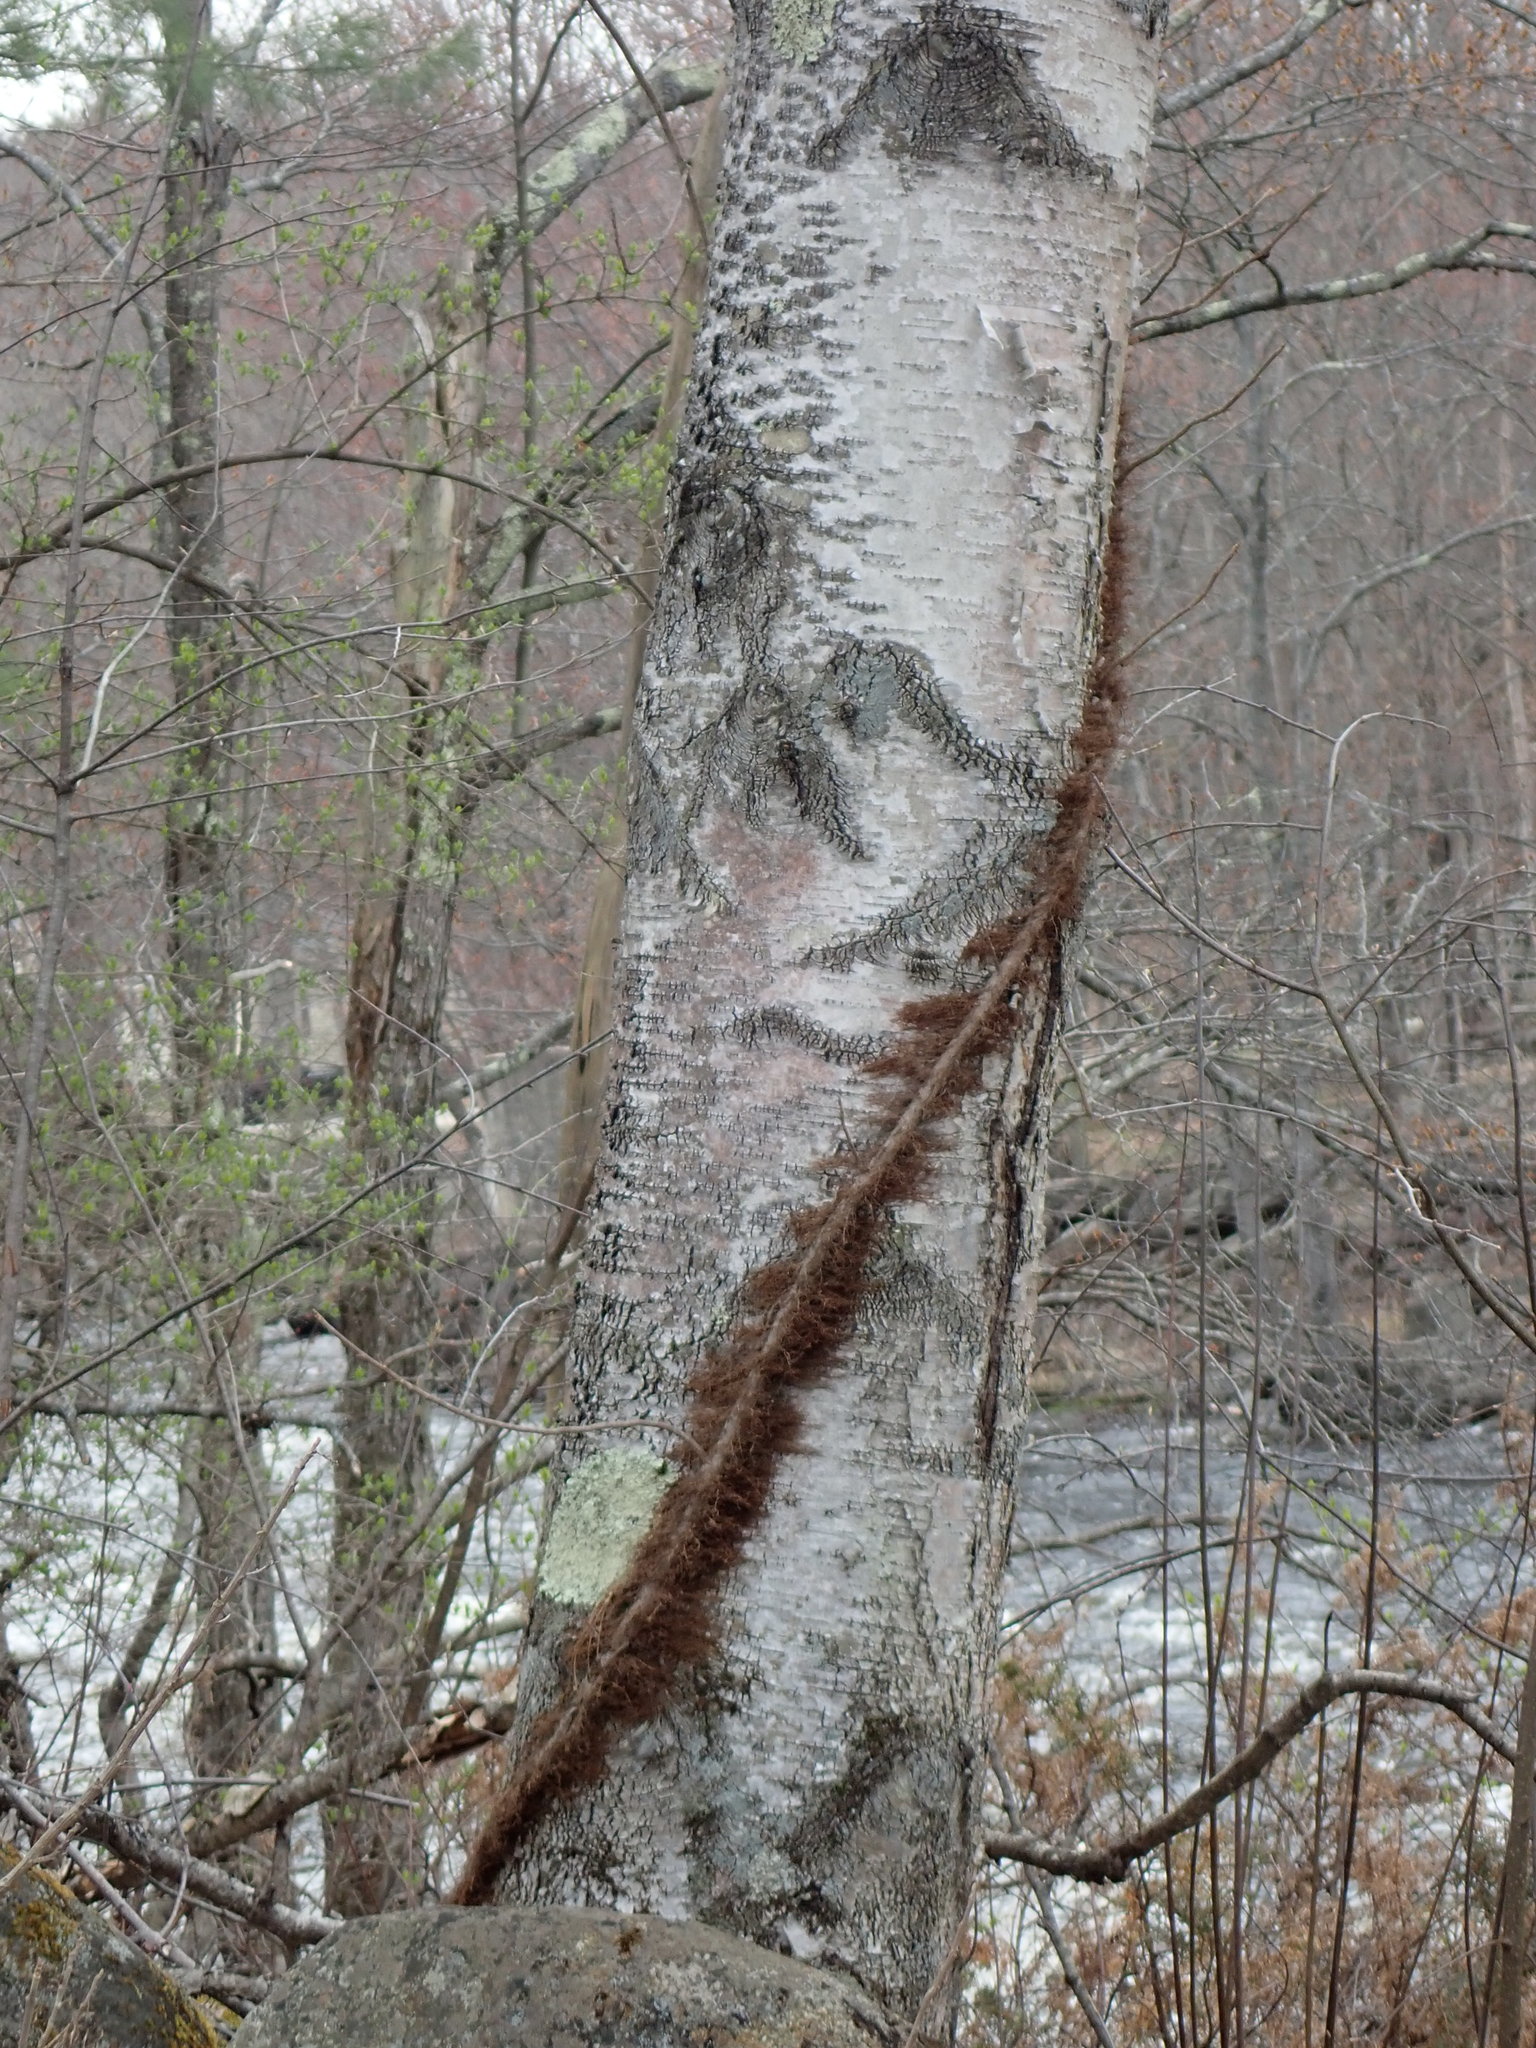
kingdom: Plantae
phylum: Tracheophyta
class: Magnoliopsida
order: Sapindales
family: Anacardiaceae
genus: Toxicodendron
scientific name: Toxicodendron radicans
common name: Poison ivy
